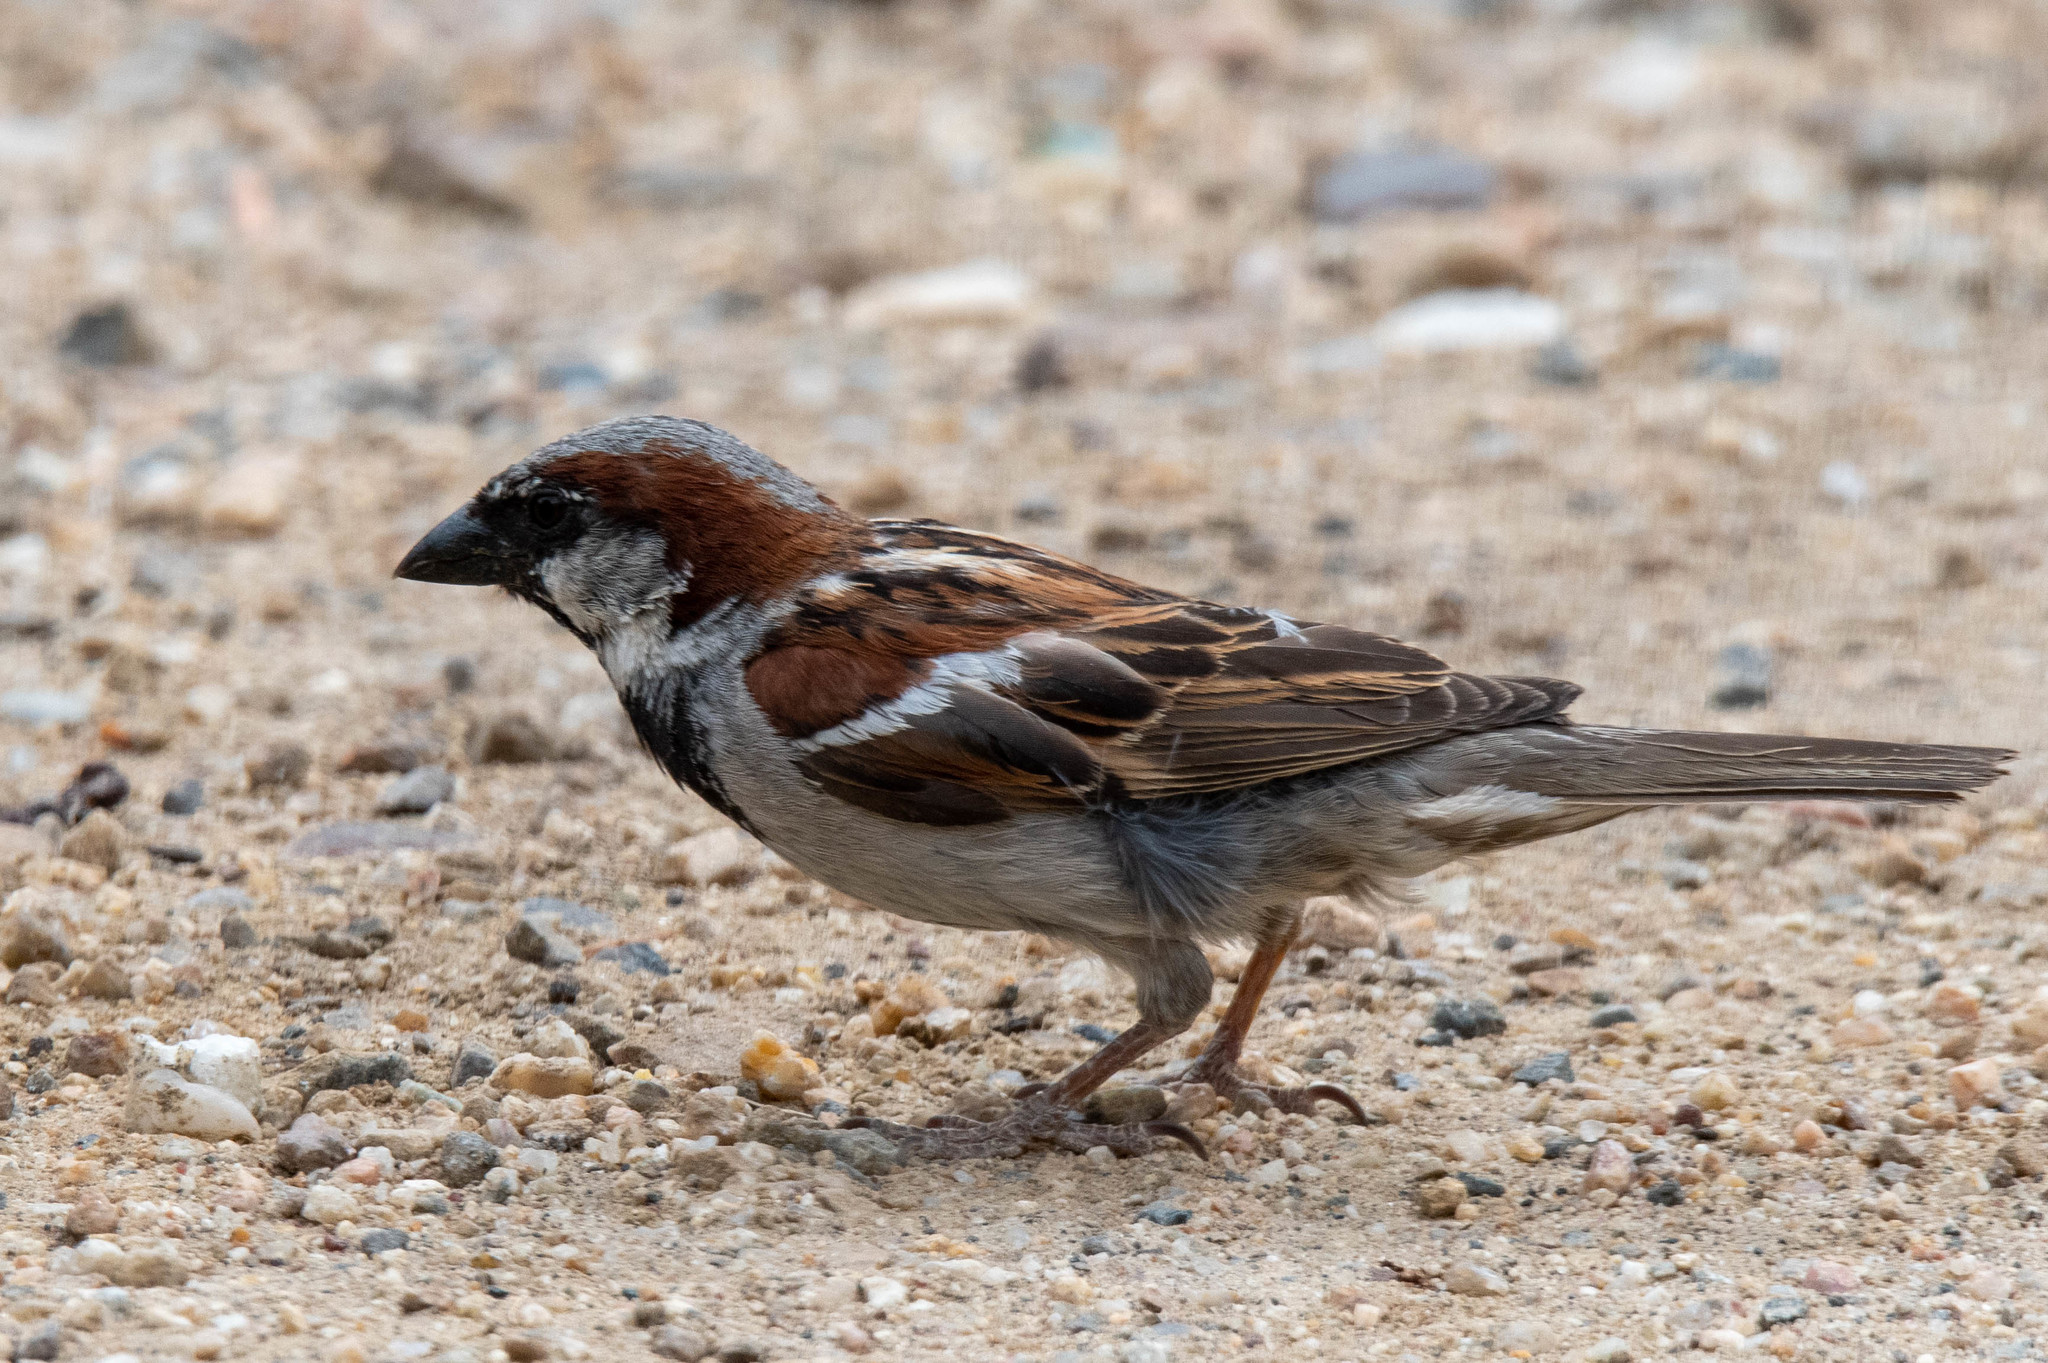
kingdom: Animalia
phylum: Chordata
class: Aves
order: Passeriformes
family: Passeridae
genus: Passer
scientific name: Passer domesticus
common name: House sparrow
